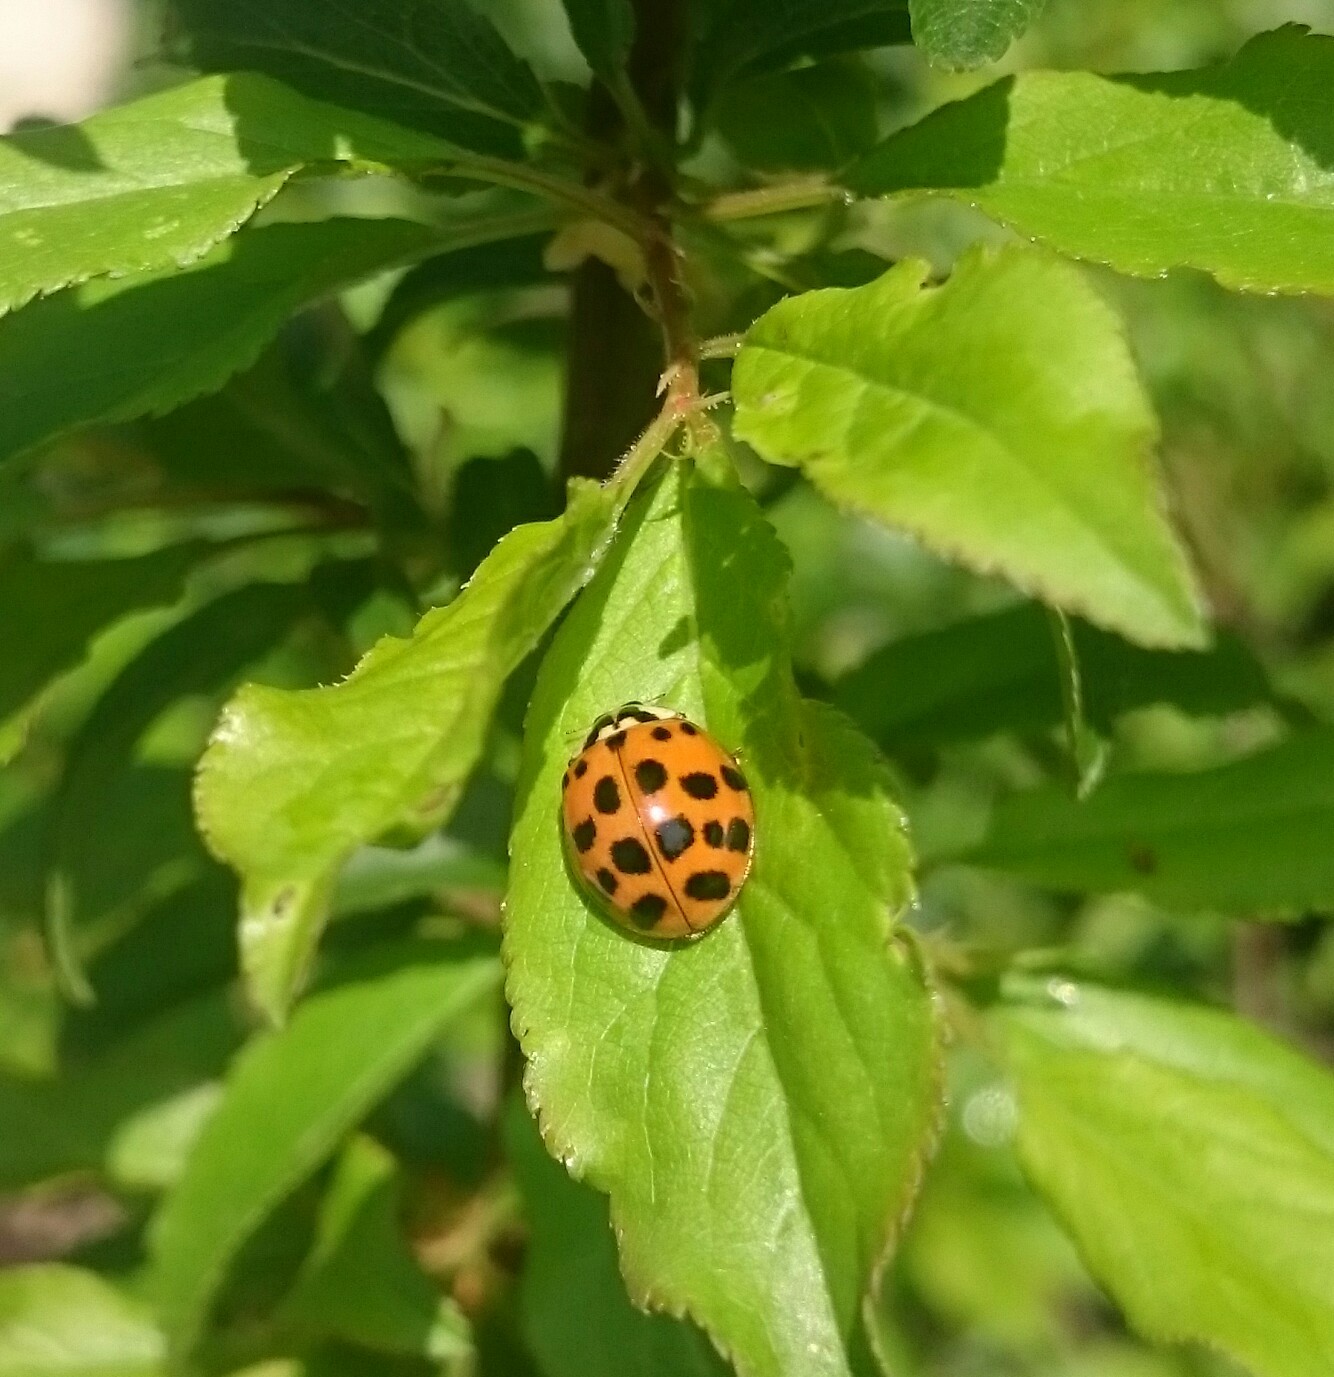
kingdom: Animalia
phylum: Arthropoda
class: Insecta
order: Coleoptera
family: Coccinellidae
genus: Harmonia
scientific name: Harmonia axyridis
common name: Harlequin ladybird
